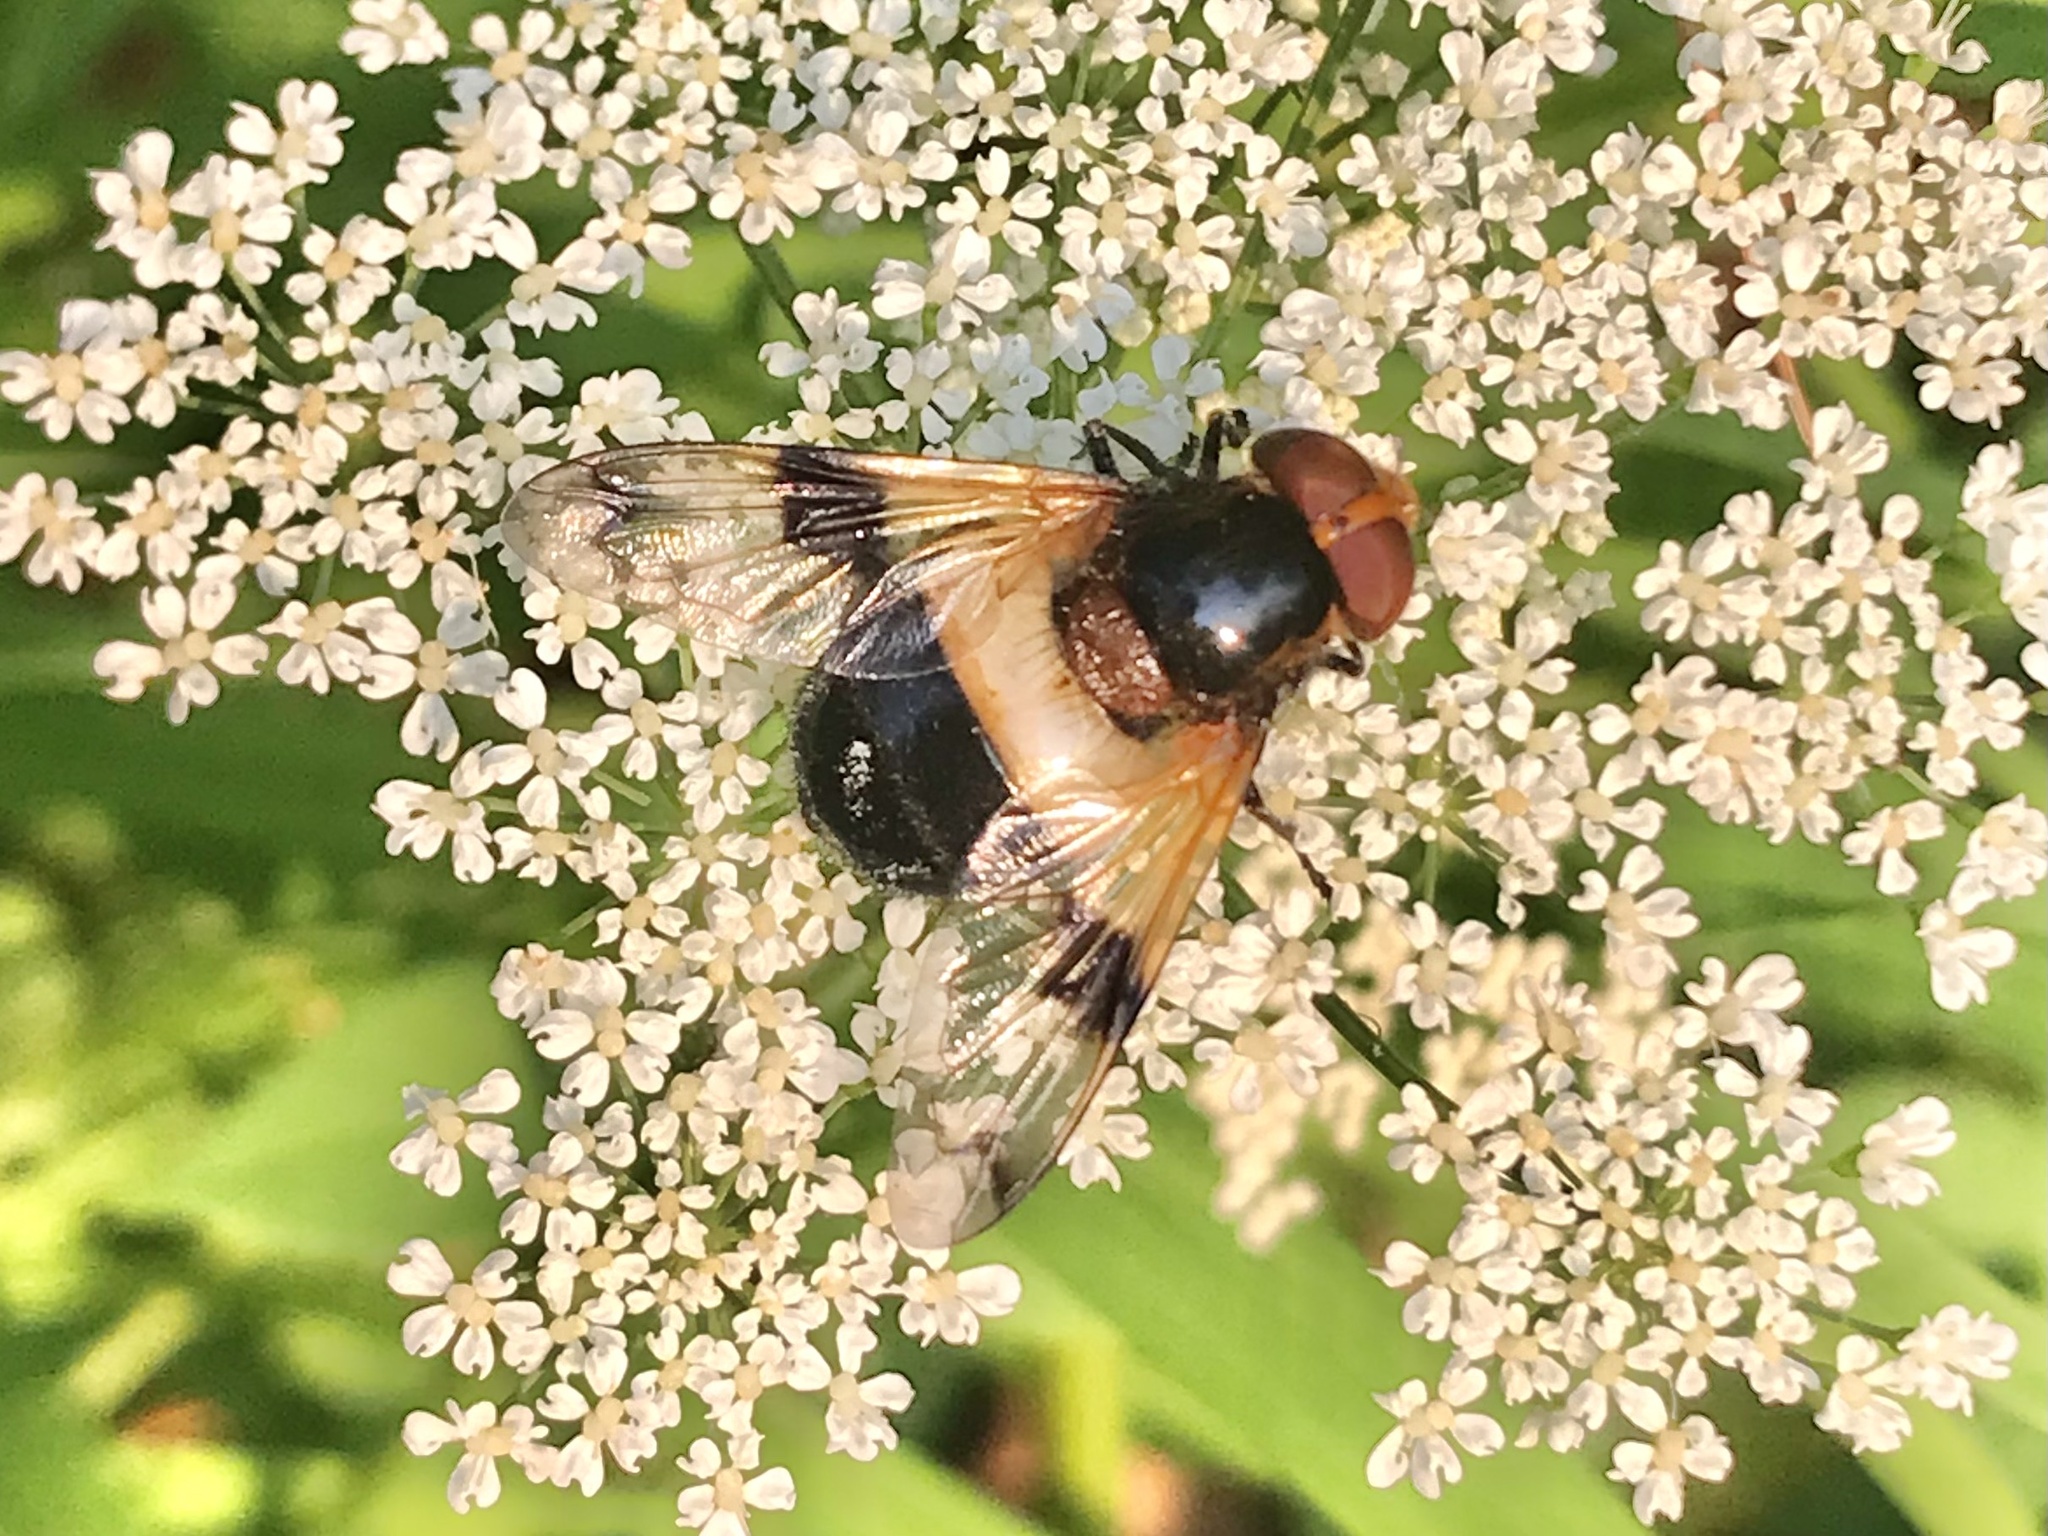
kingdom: Animalia
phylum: Arthropoda
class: Insecta
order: Diptera
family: Syrphidae
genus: Volucella
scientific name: Volucella pellucens
